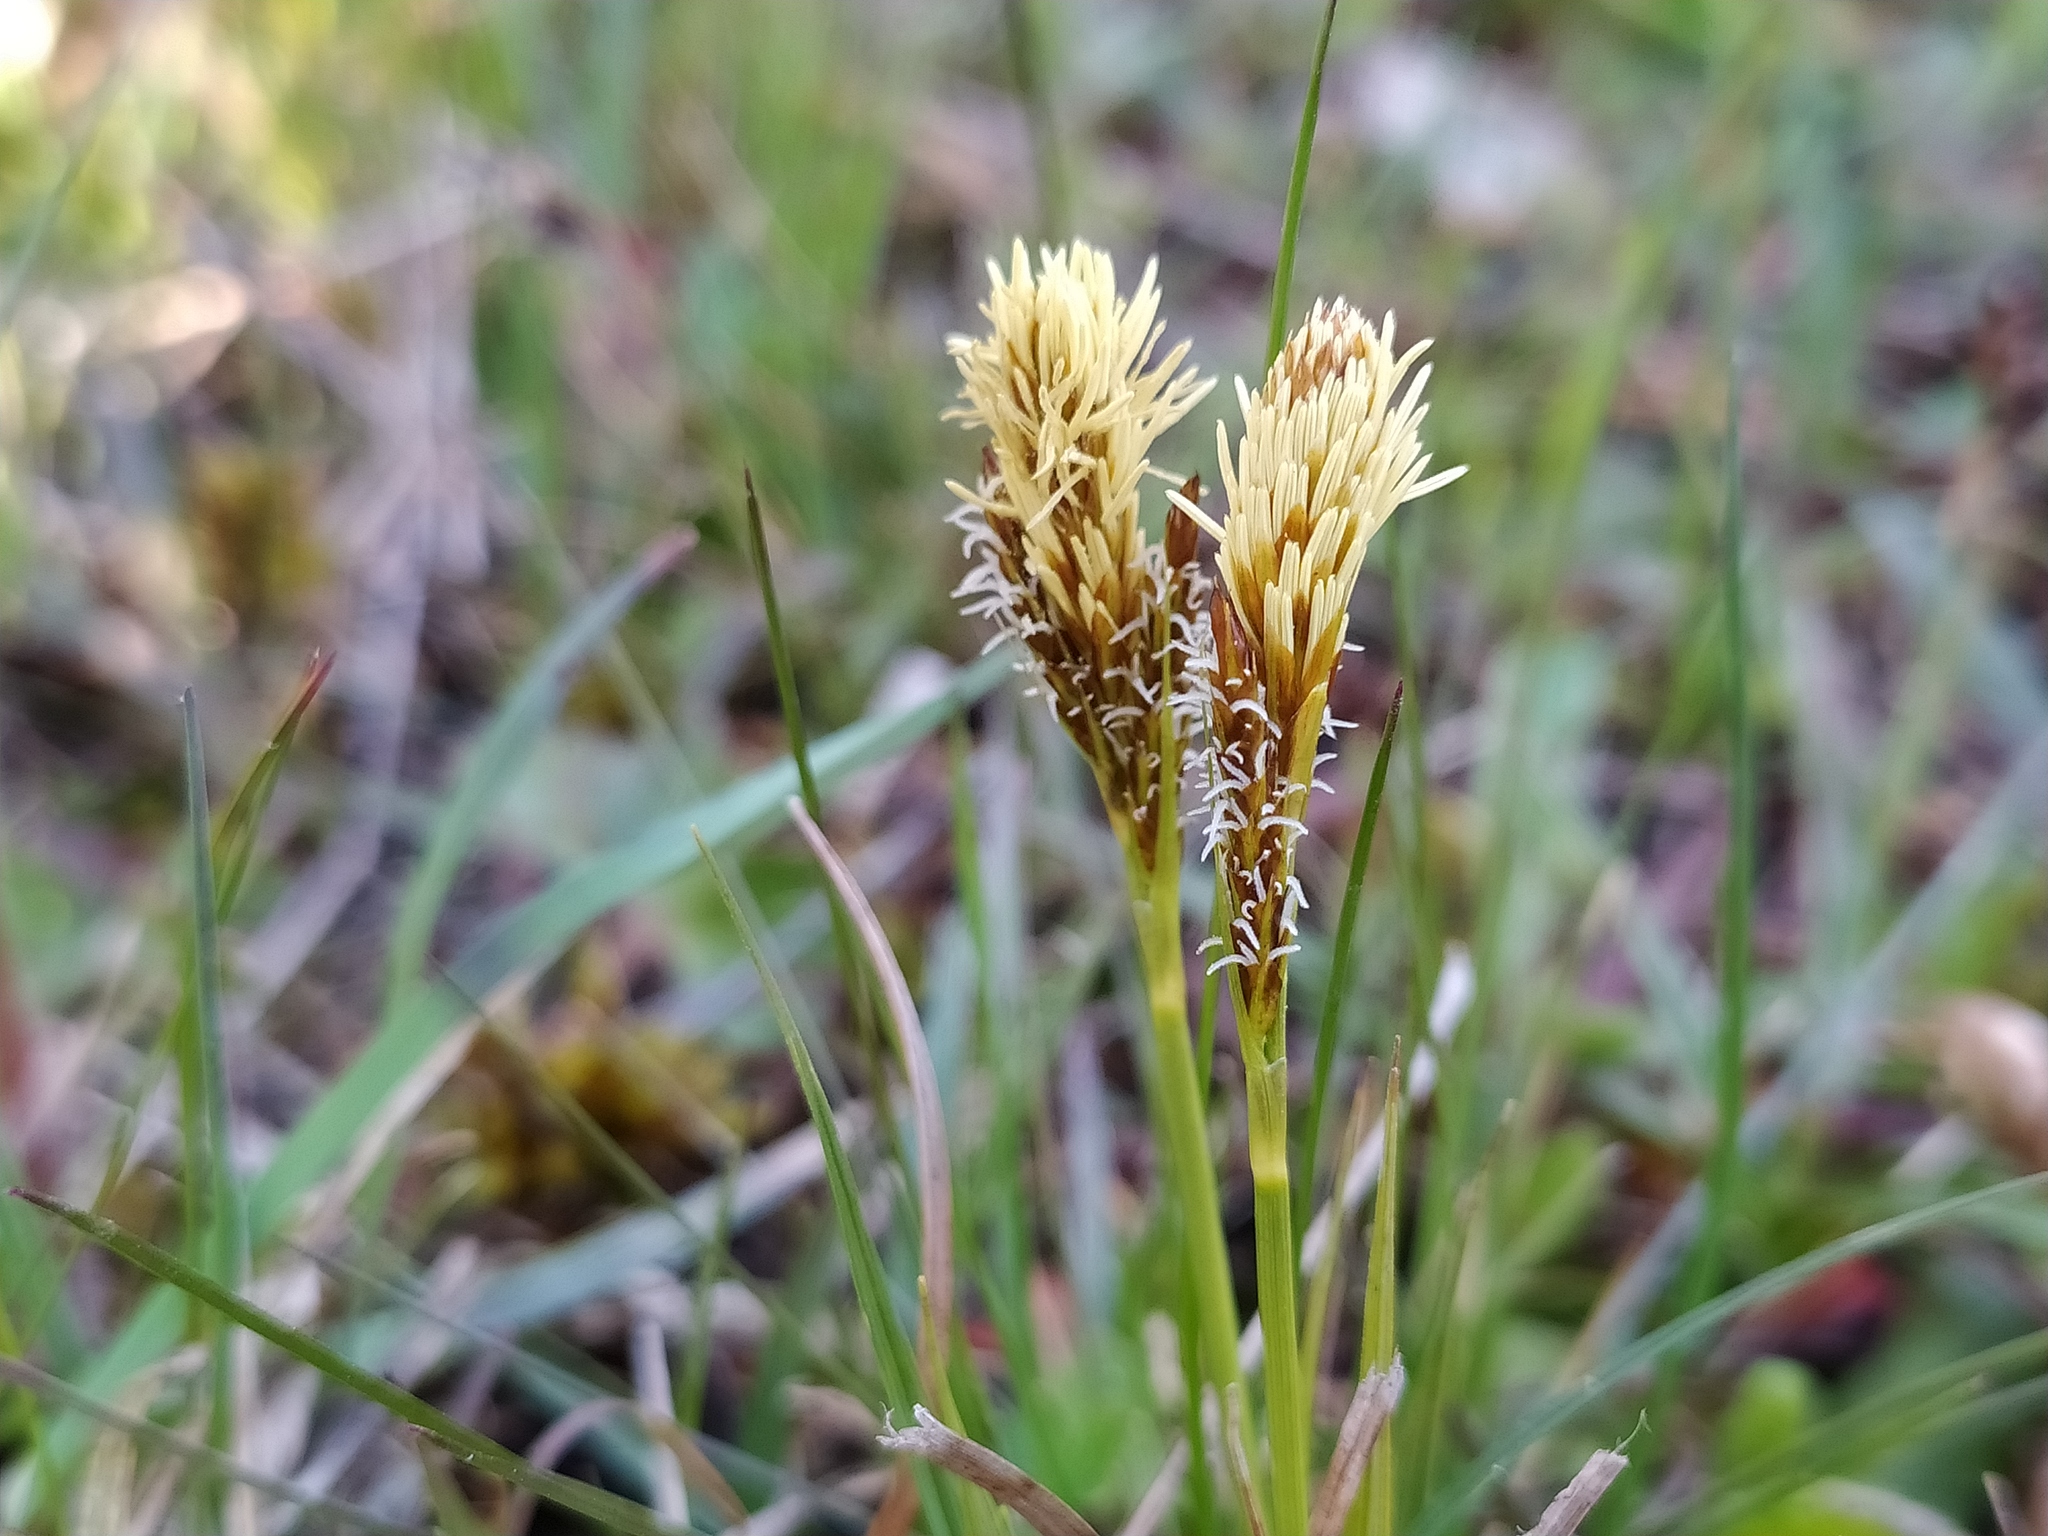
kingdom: Plantae
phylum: Tracheophyta
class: Liliopsida
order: Poales
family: Cyperaceae
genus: Carex
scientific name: Carex caryophyllea
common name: Spring sedge
